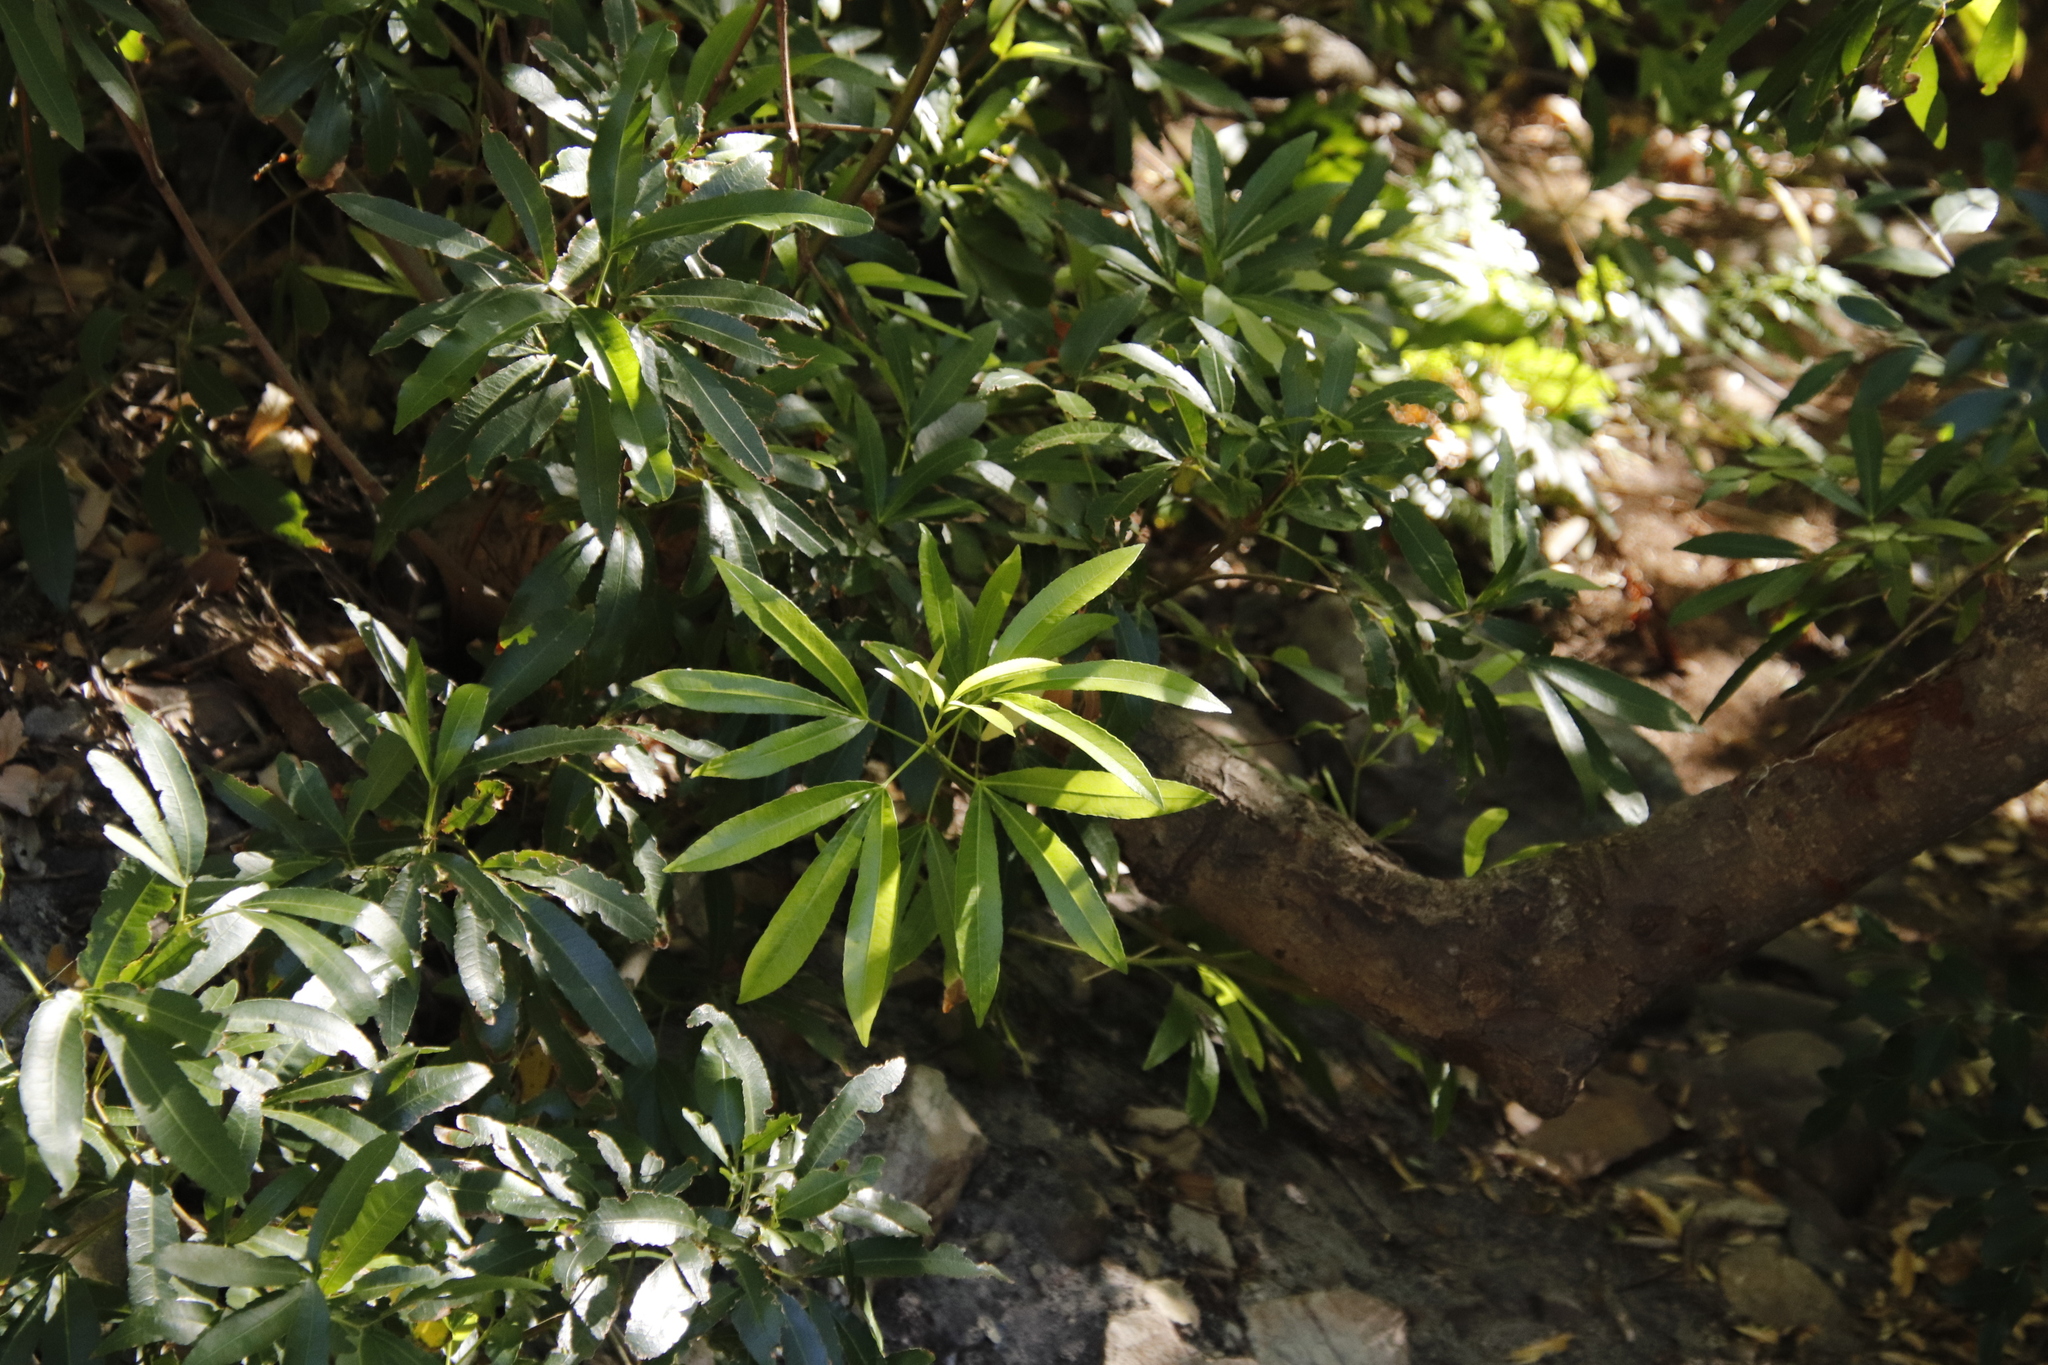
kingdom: Plantae
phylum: Tracheophyta
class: Magnoliopsida
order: Oxalidales
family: Cunoniaceae
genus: Platylophus
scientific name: Platylophus trifoliatus
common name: White alder
